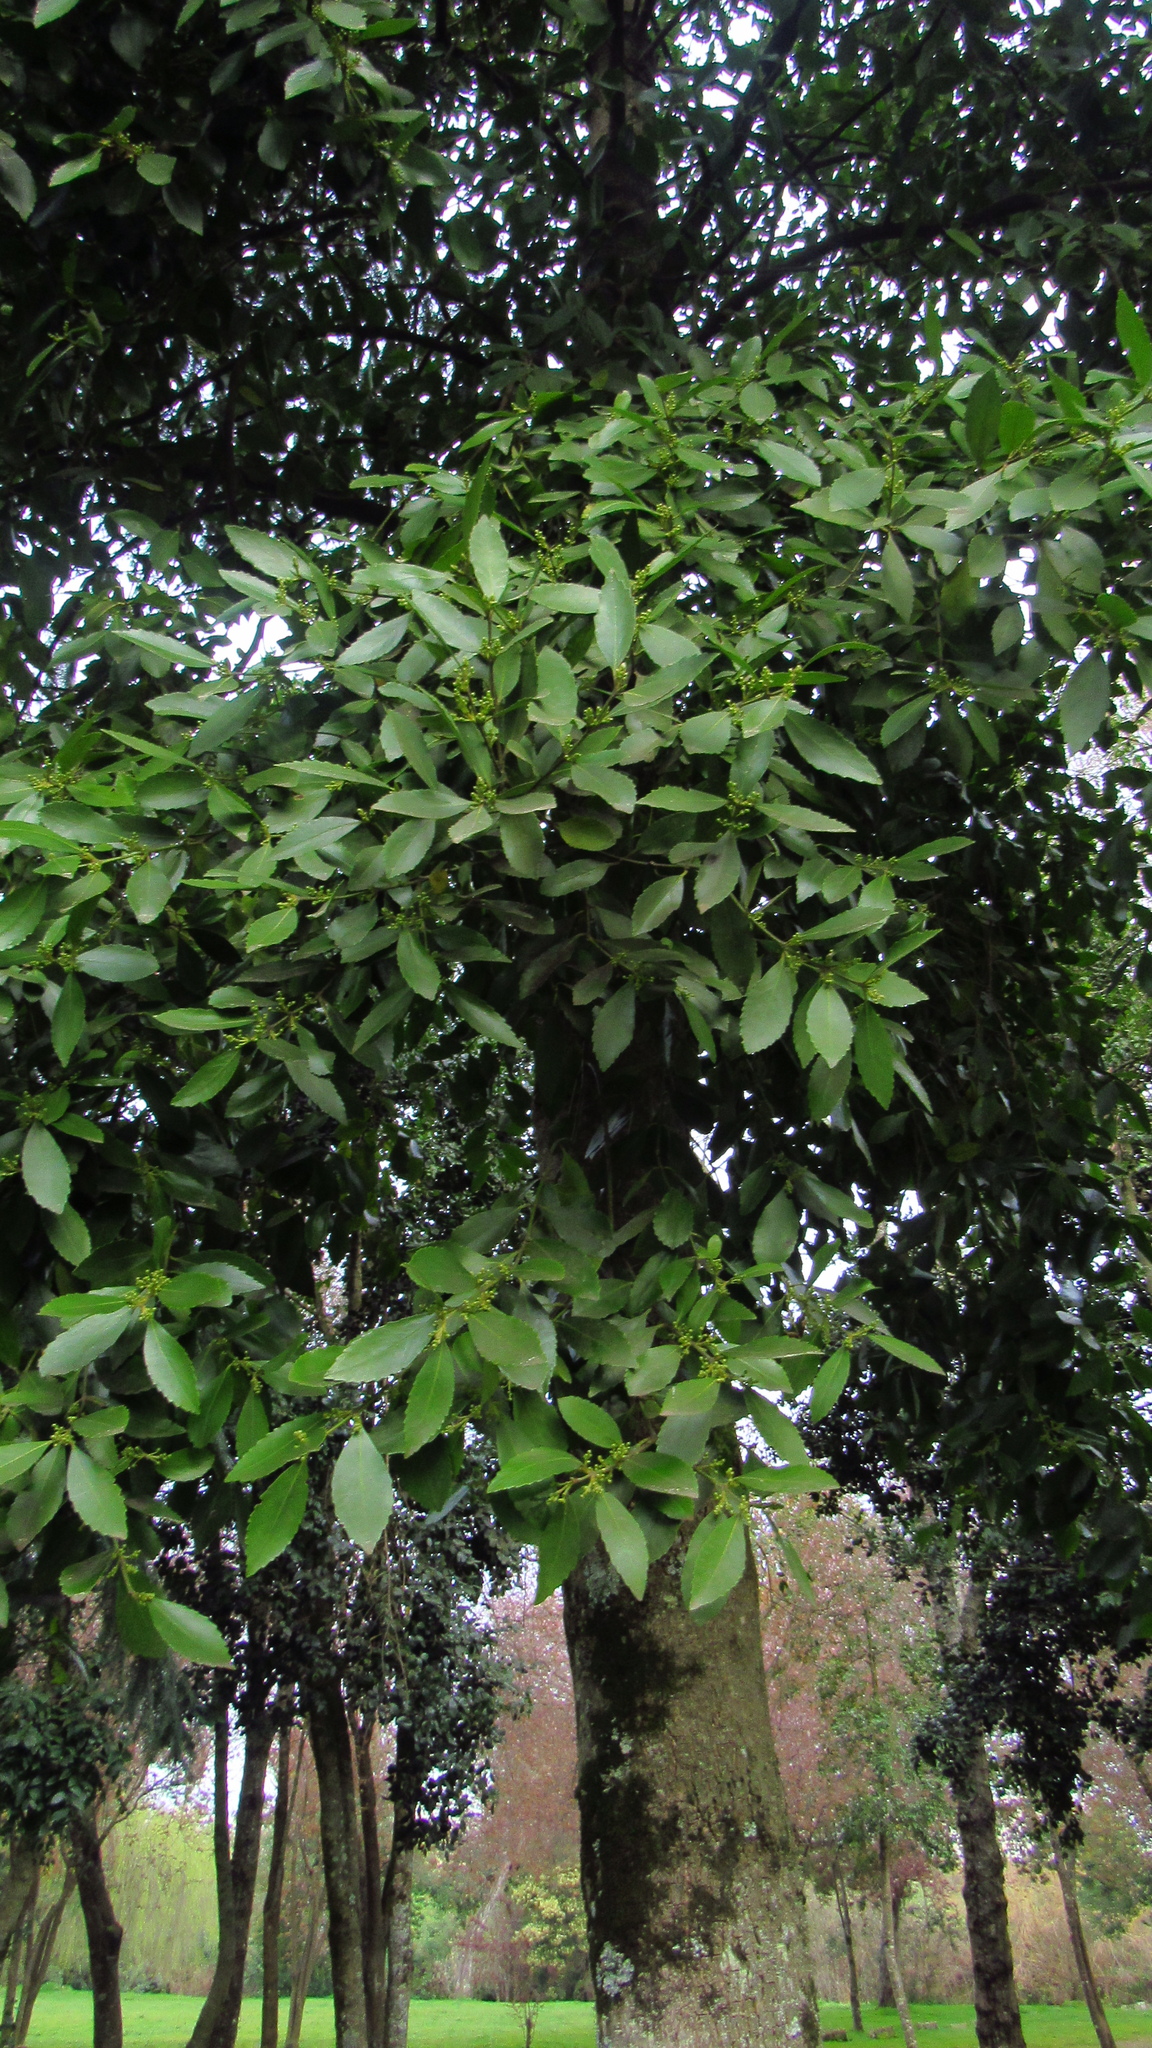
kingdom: Plantae
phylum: Tracheophyta
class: Magnoliopsida
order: Laurales
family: Atherospermataceae
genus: Laureliopsis
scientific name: Laureliopsis philippiana
